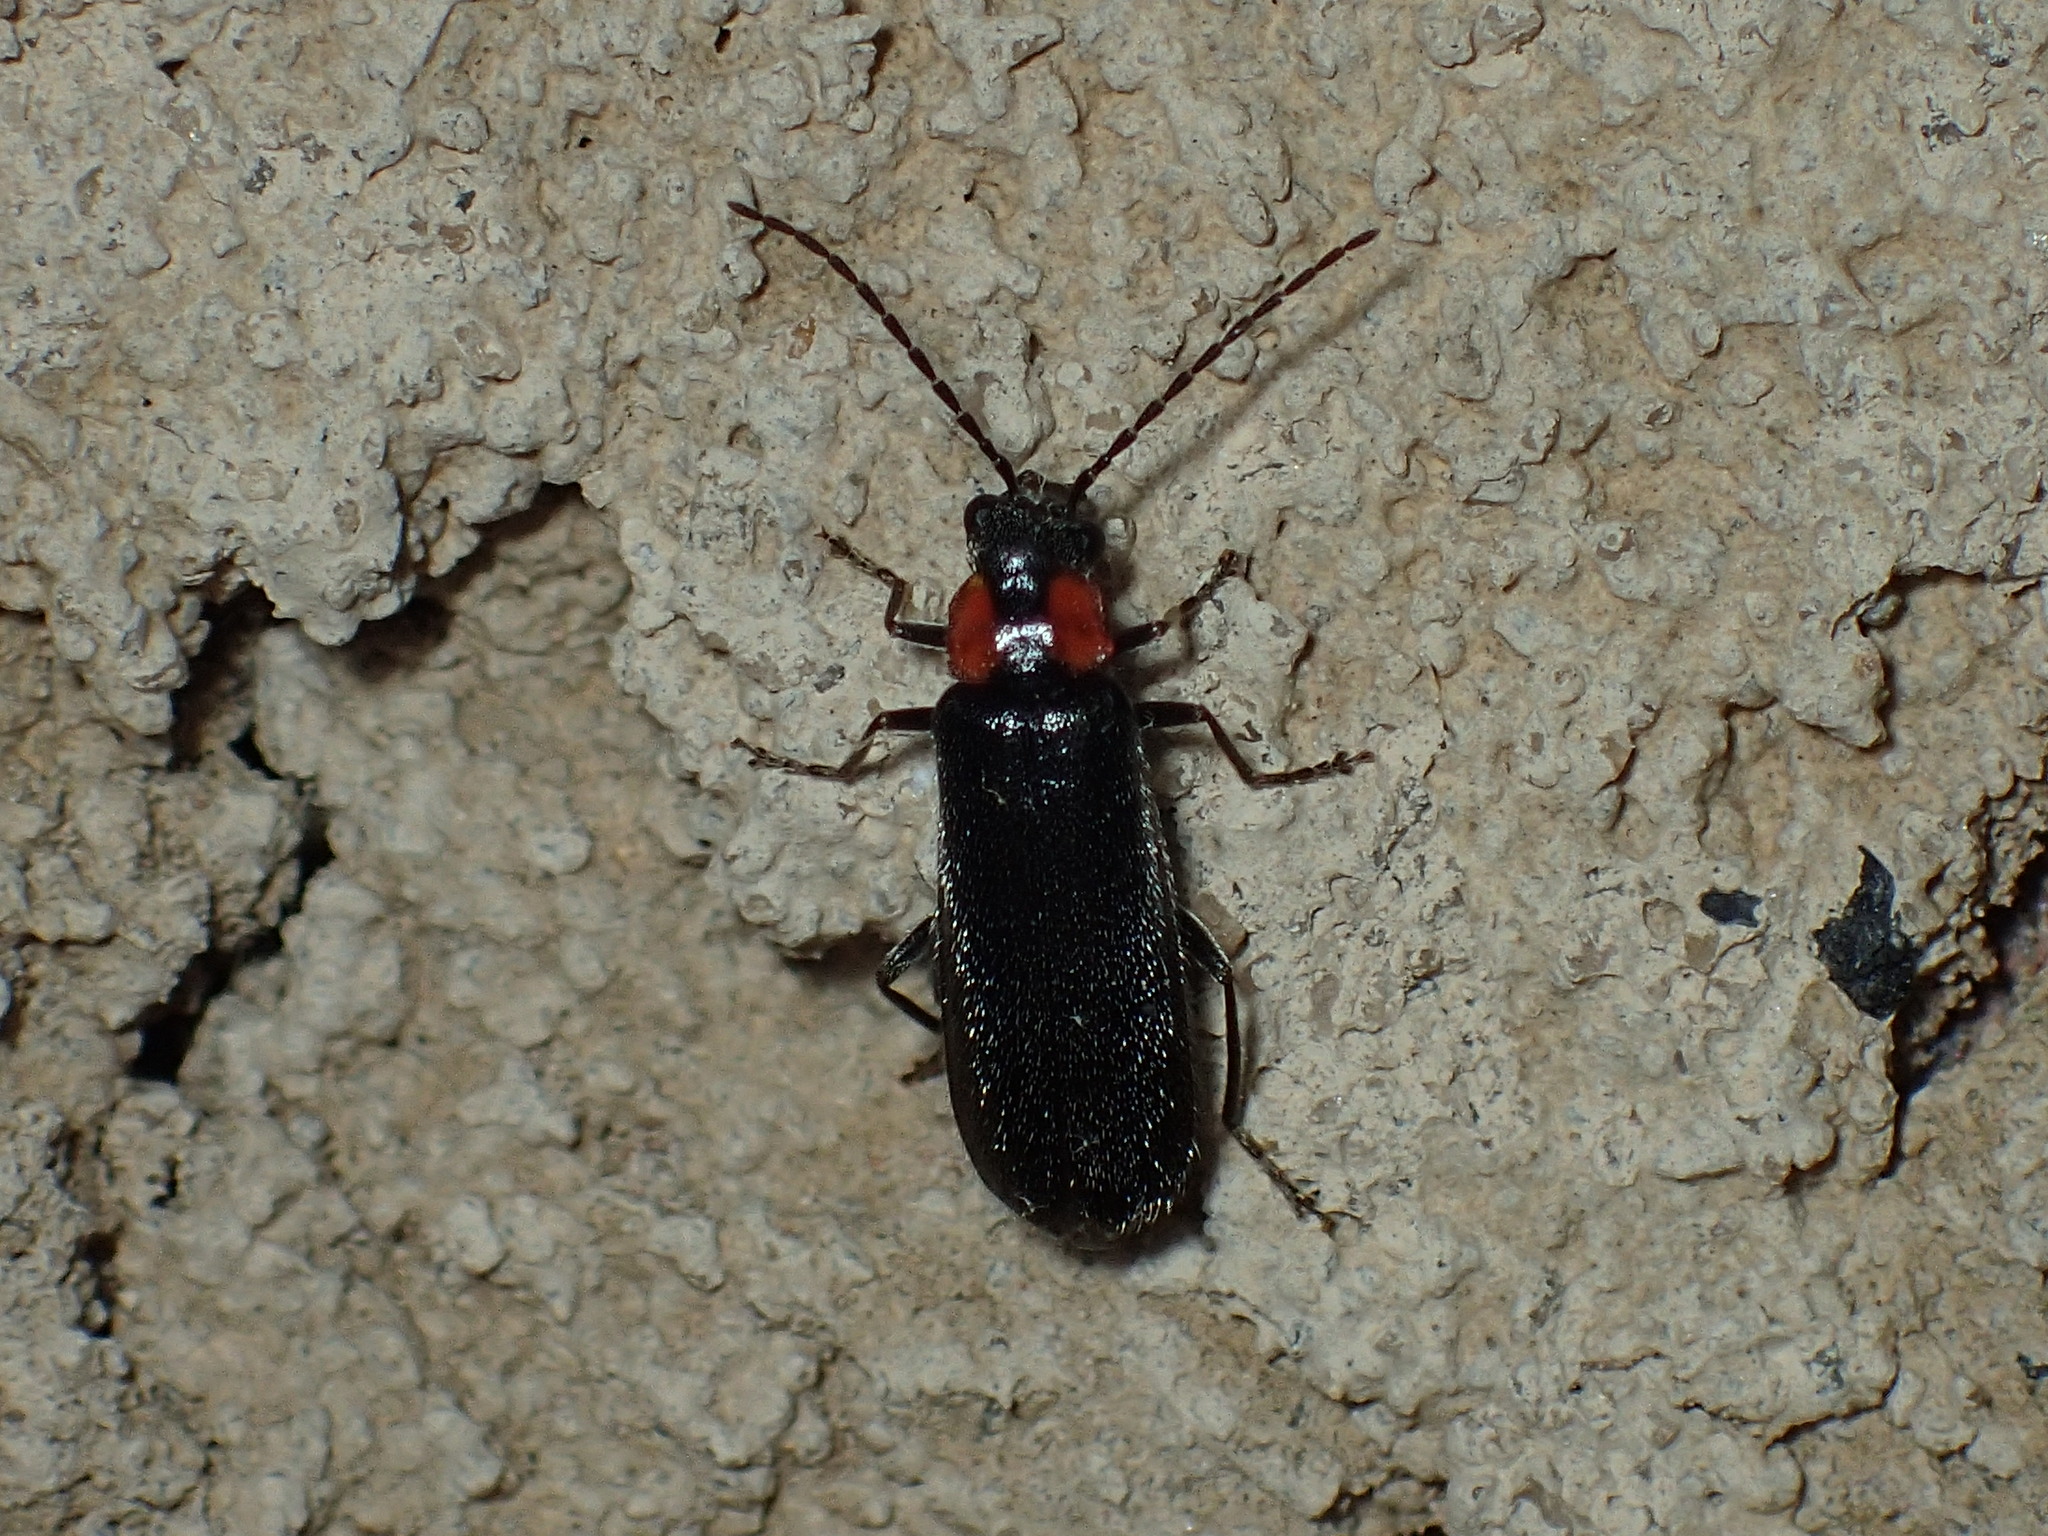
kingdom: Animalia
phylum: Arthropoda
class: Insecta
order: Coleoptera
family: Cantharidae
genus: Rhagonycha
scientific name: Rhagonycha lineola
